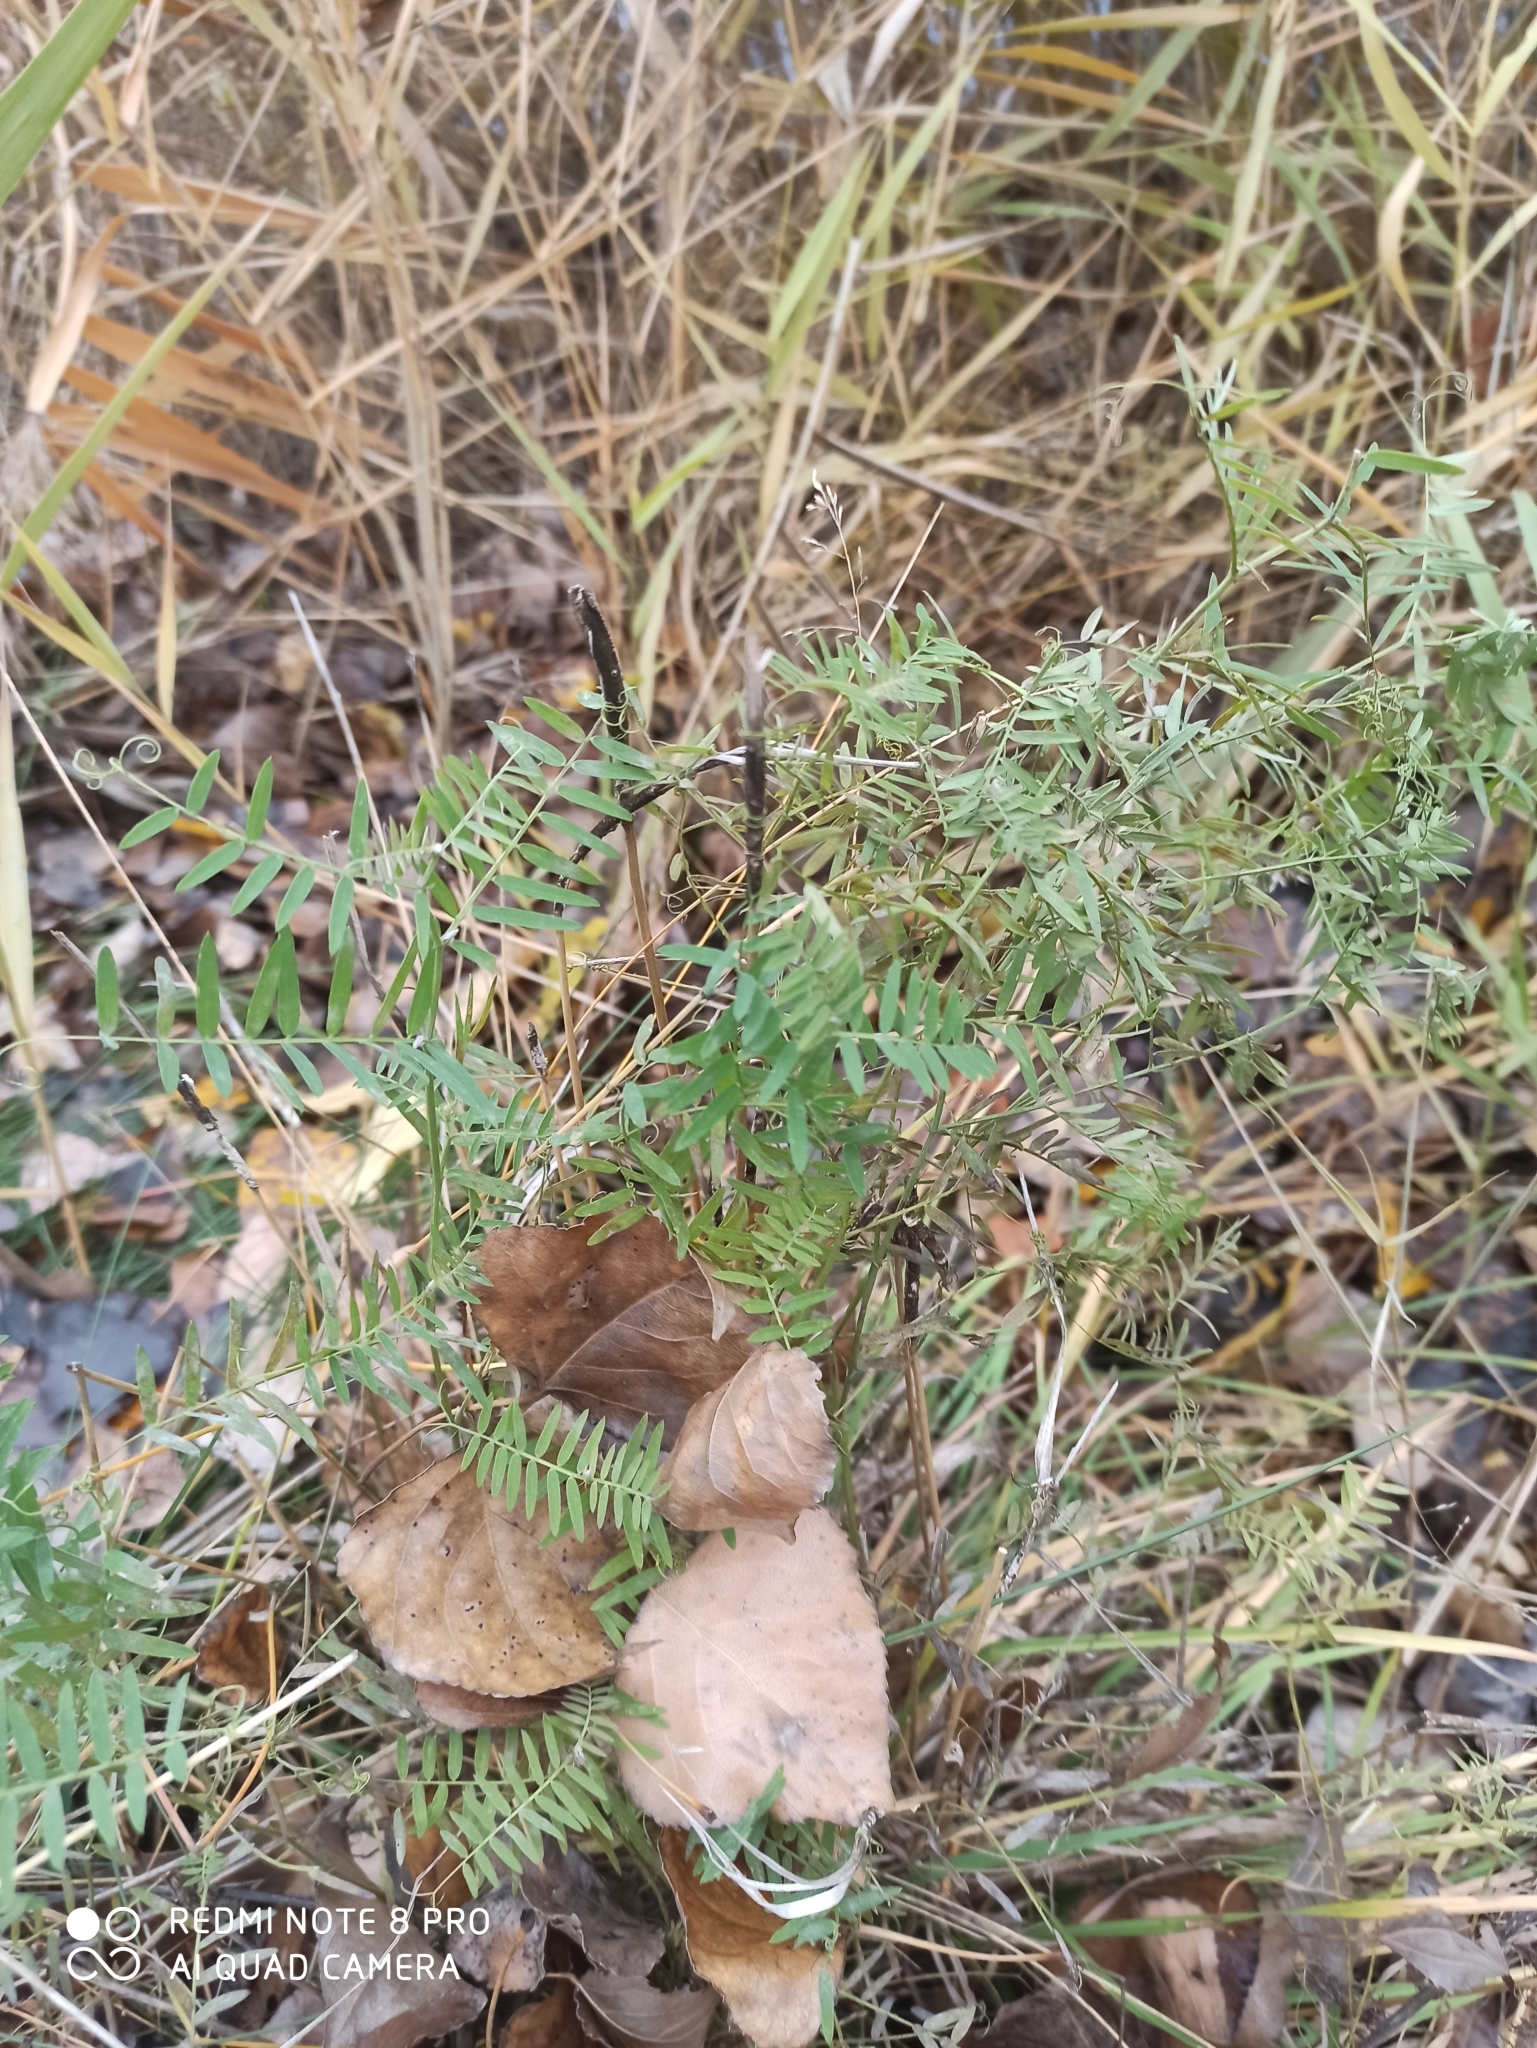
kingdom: Plantae
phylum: Tracheophyta
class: Magnoliopsida
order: Fabales
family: Fabaceae
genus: Vicia
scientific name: Vicia cracca
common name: Bird vetch
